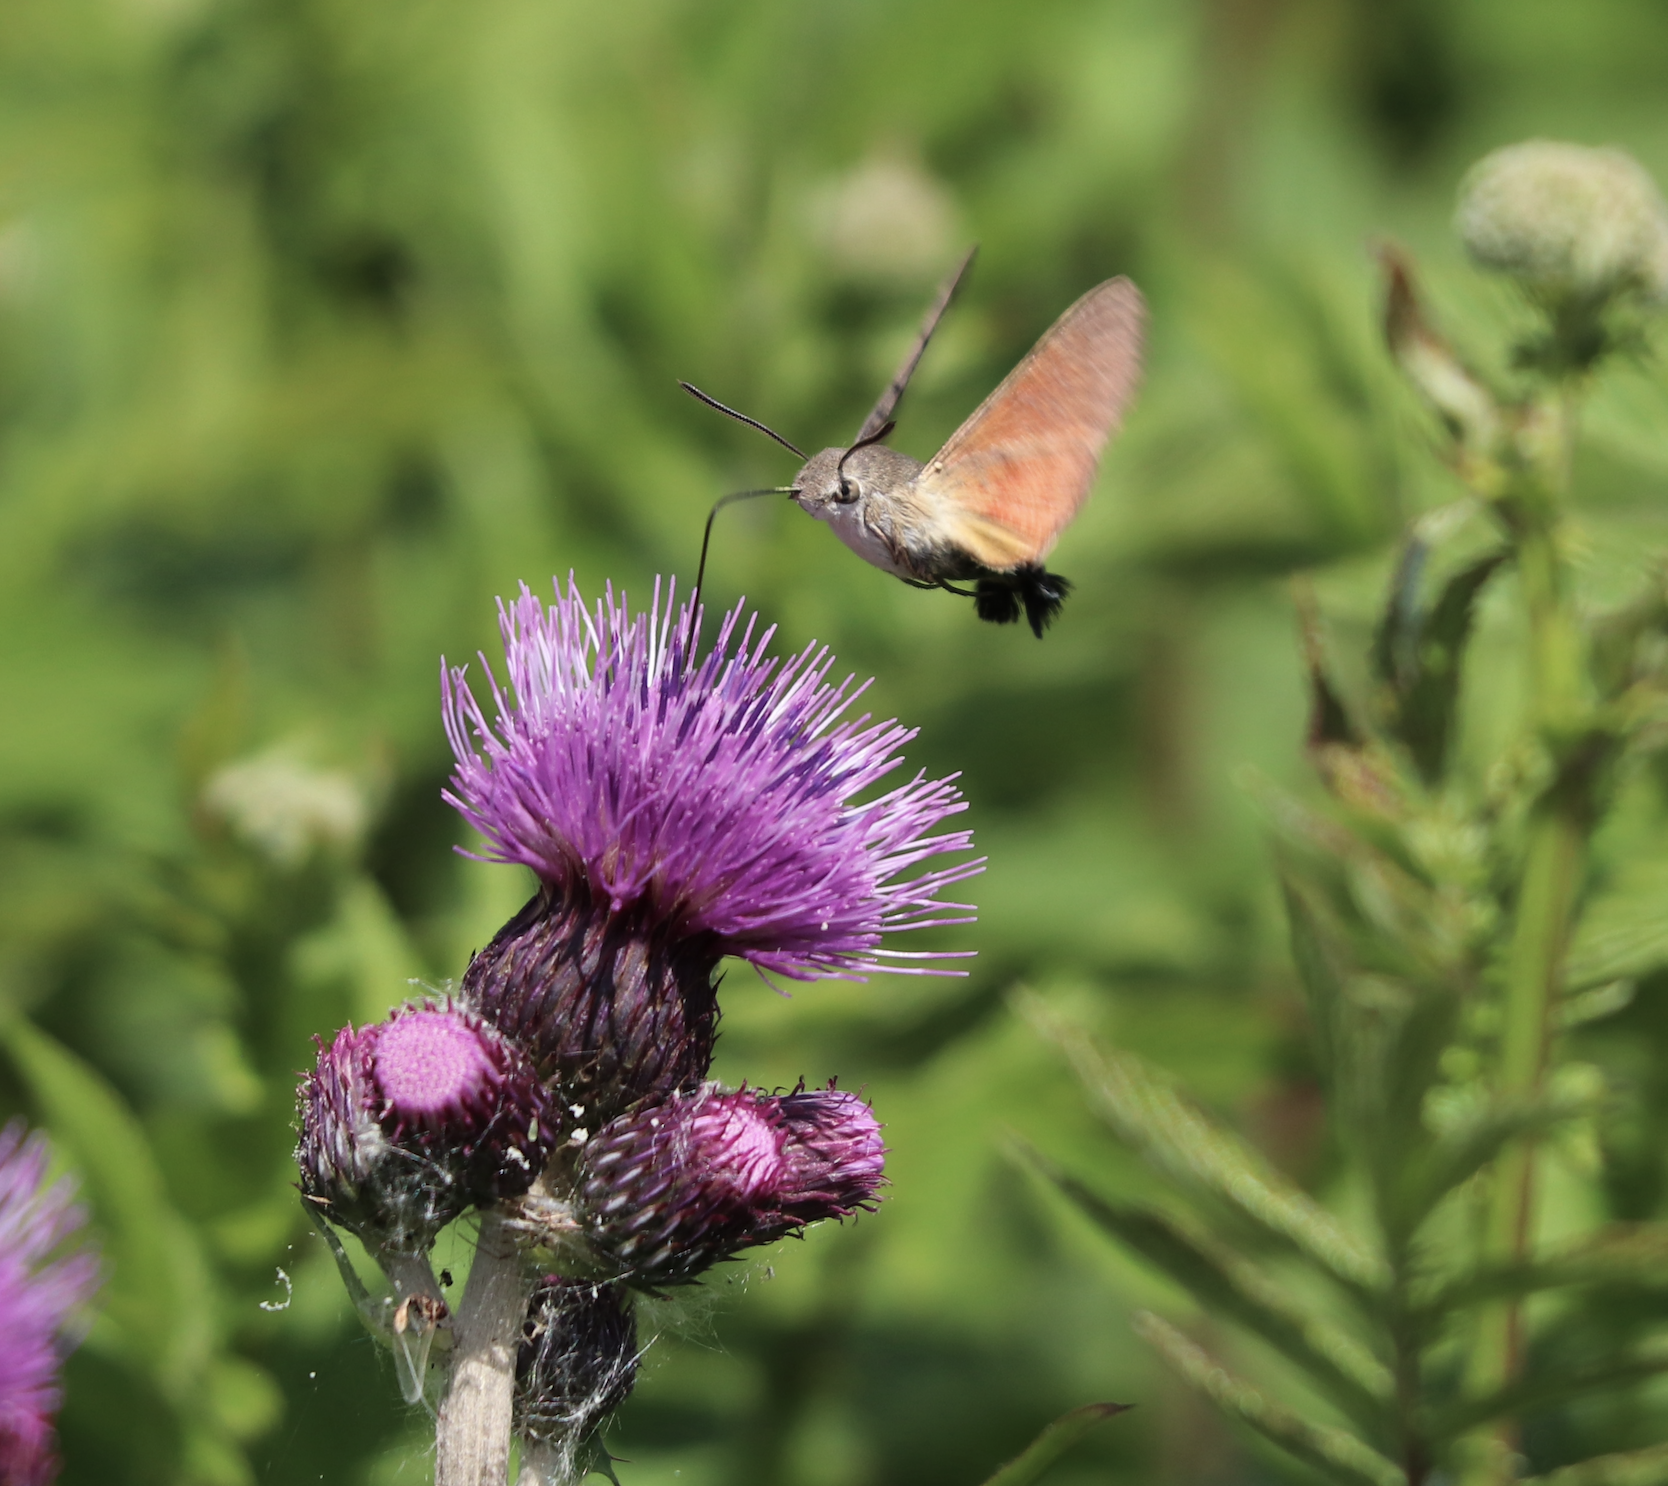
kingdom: Animalia
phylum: Arthropoda
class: Insecta
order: Lepidoptera
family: Sphingidae
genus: Macroglossum
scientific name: Macroglossum stellatarum
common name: Humming-bird hawk-moth
